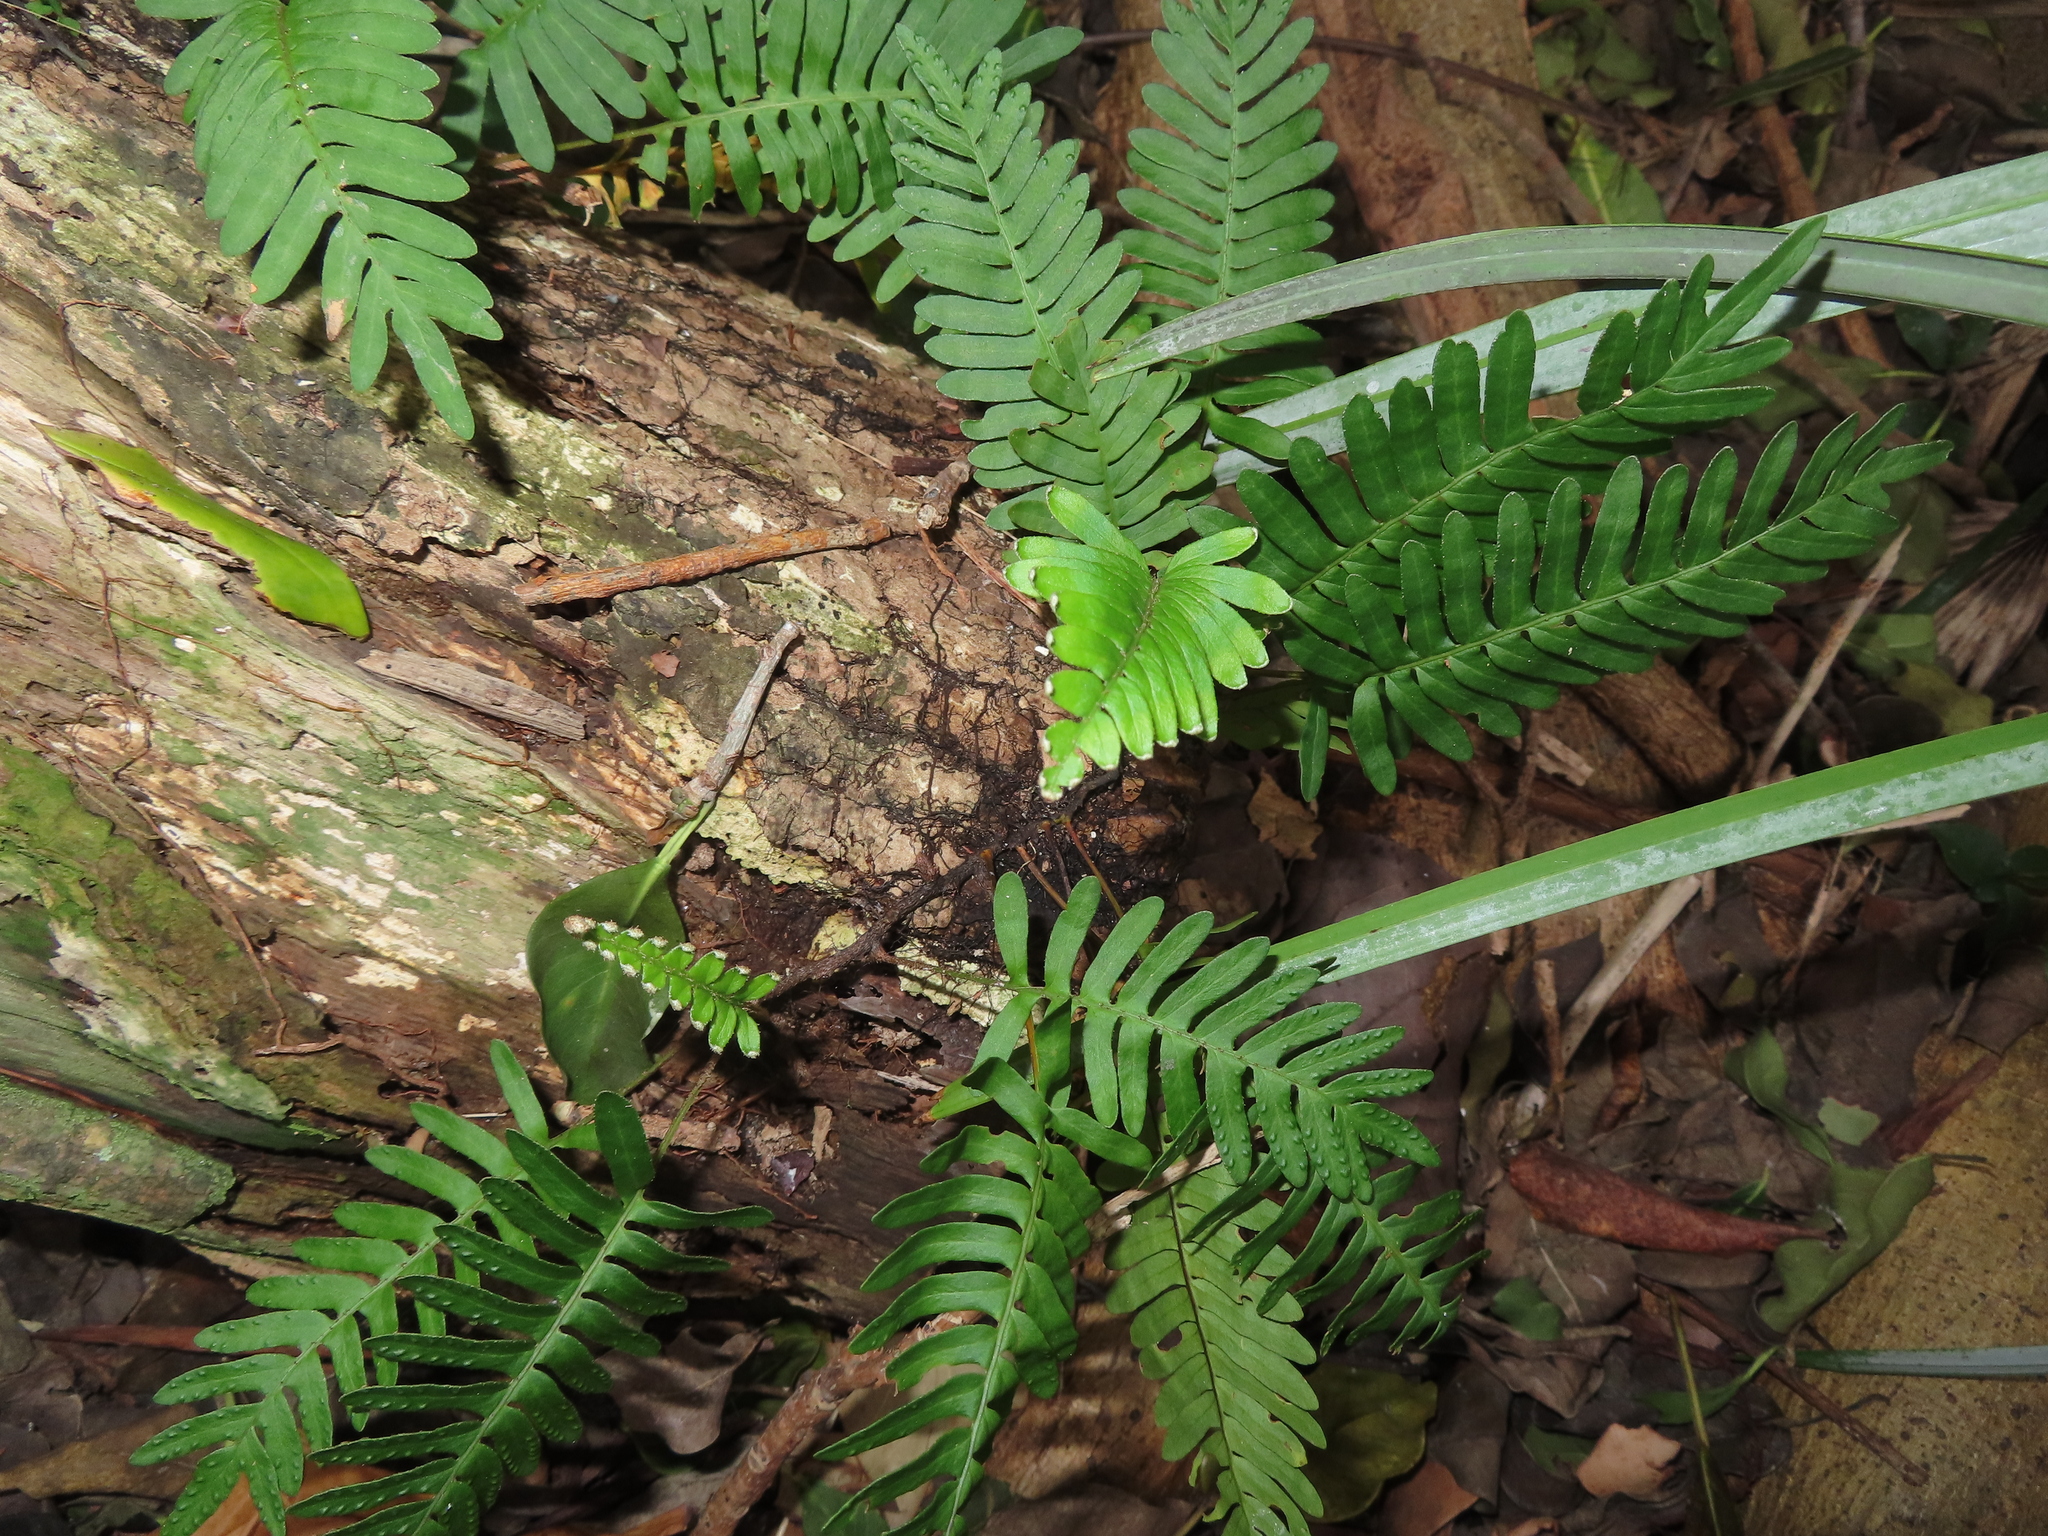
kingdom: Plantae
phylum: Tracheophyta
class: Polypodiopsida
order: Polypodiales
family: Polypodiaceae
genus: Pleopeltis
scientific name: Pleopeltis michauxiana
